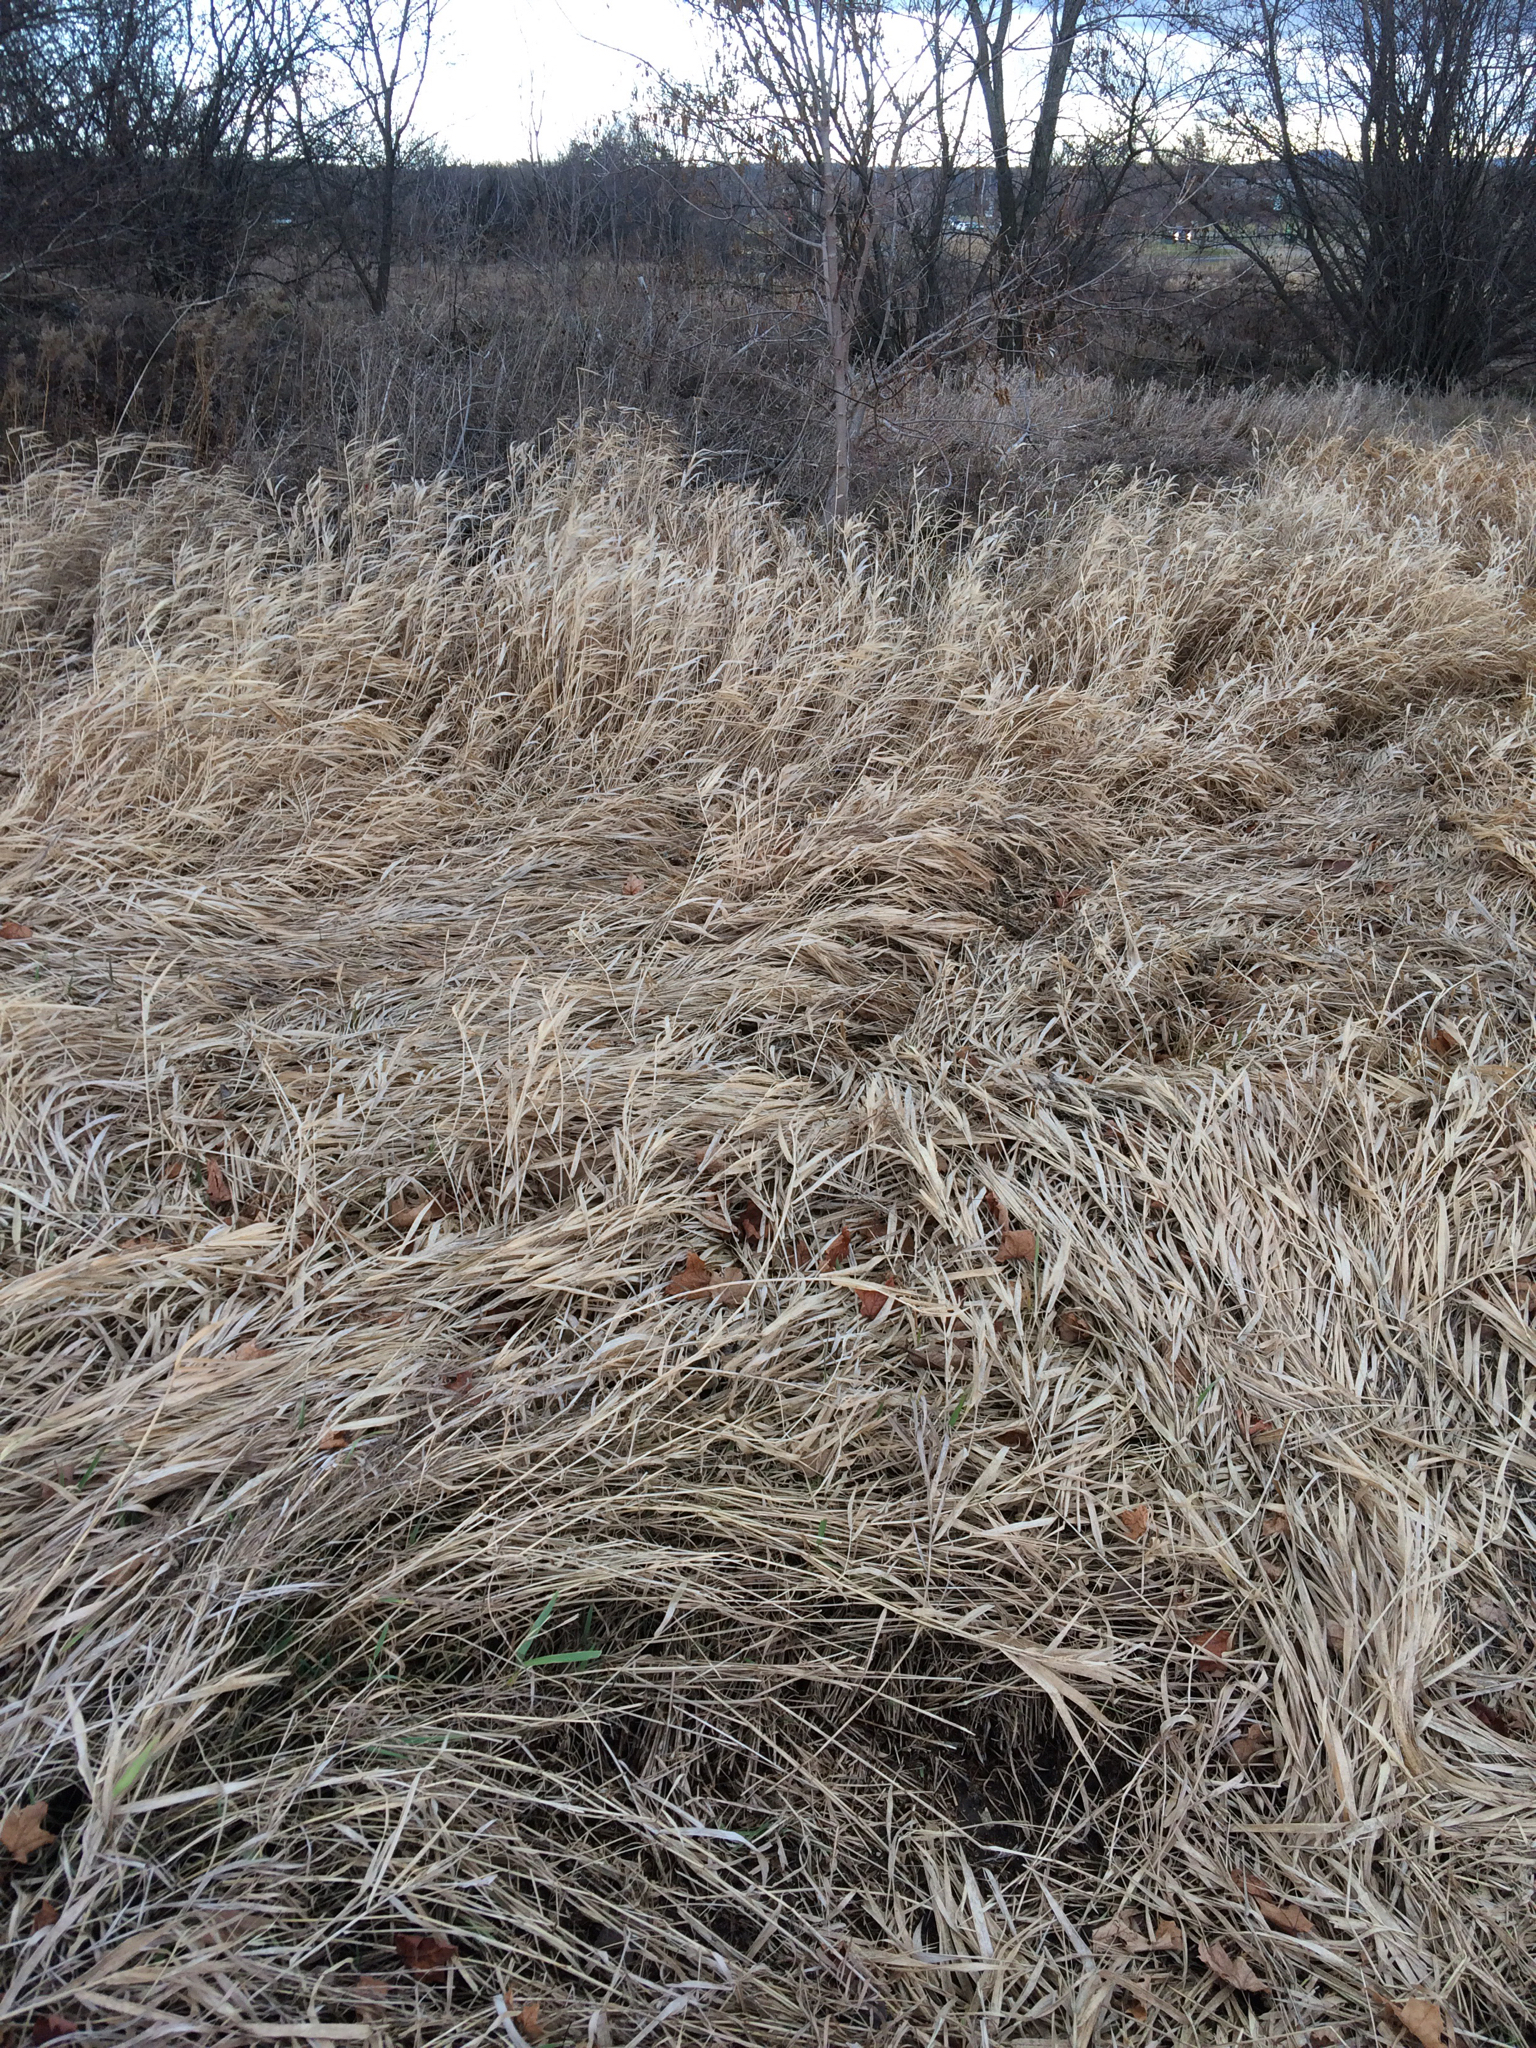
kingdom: Plantae
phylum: Tracheophyta
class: Liliopsida
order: Poales
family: Poaceae
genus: Phalaris
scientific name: Phalaris arundinacea
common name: Reed canary-grass
